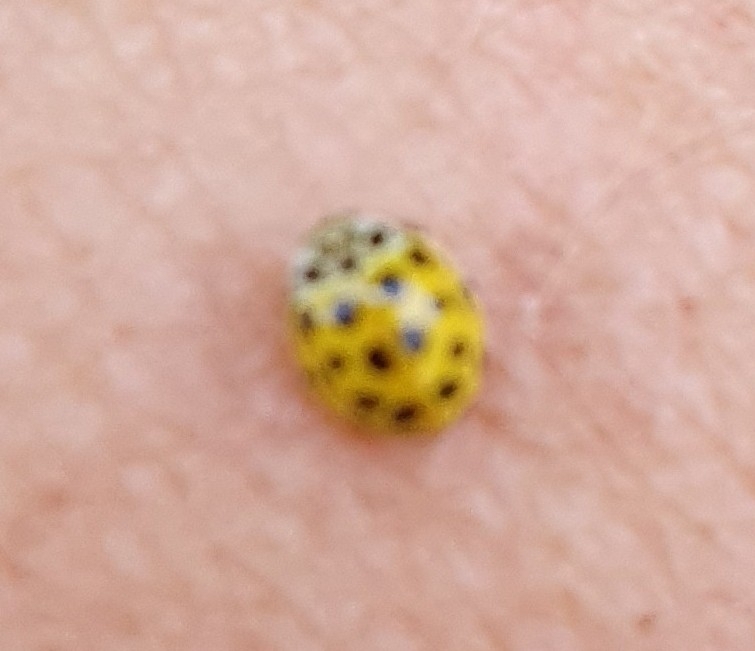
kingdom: Animalia
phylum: Arthropoda
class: Insecta
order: Coleoptera
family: Coccinellidae
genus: Psyllobora
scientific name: Psyllobora vigintiduopunctata
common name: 22-spot ladybird
